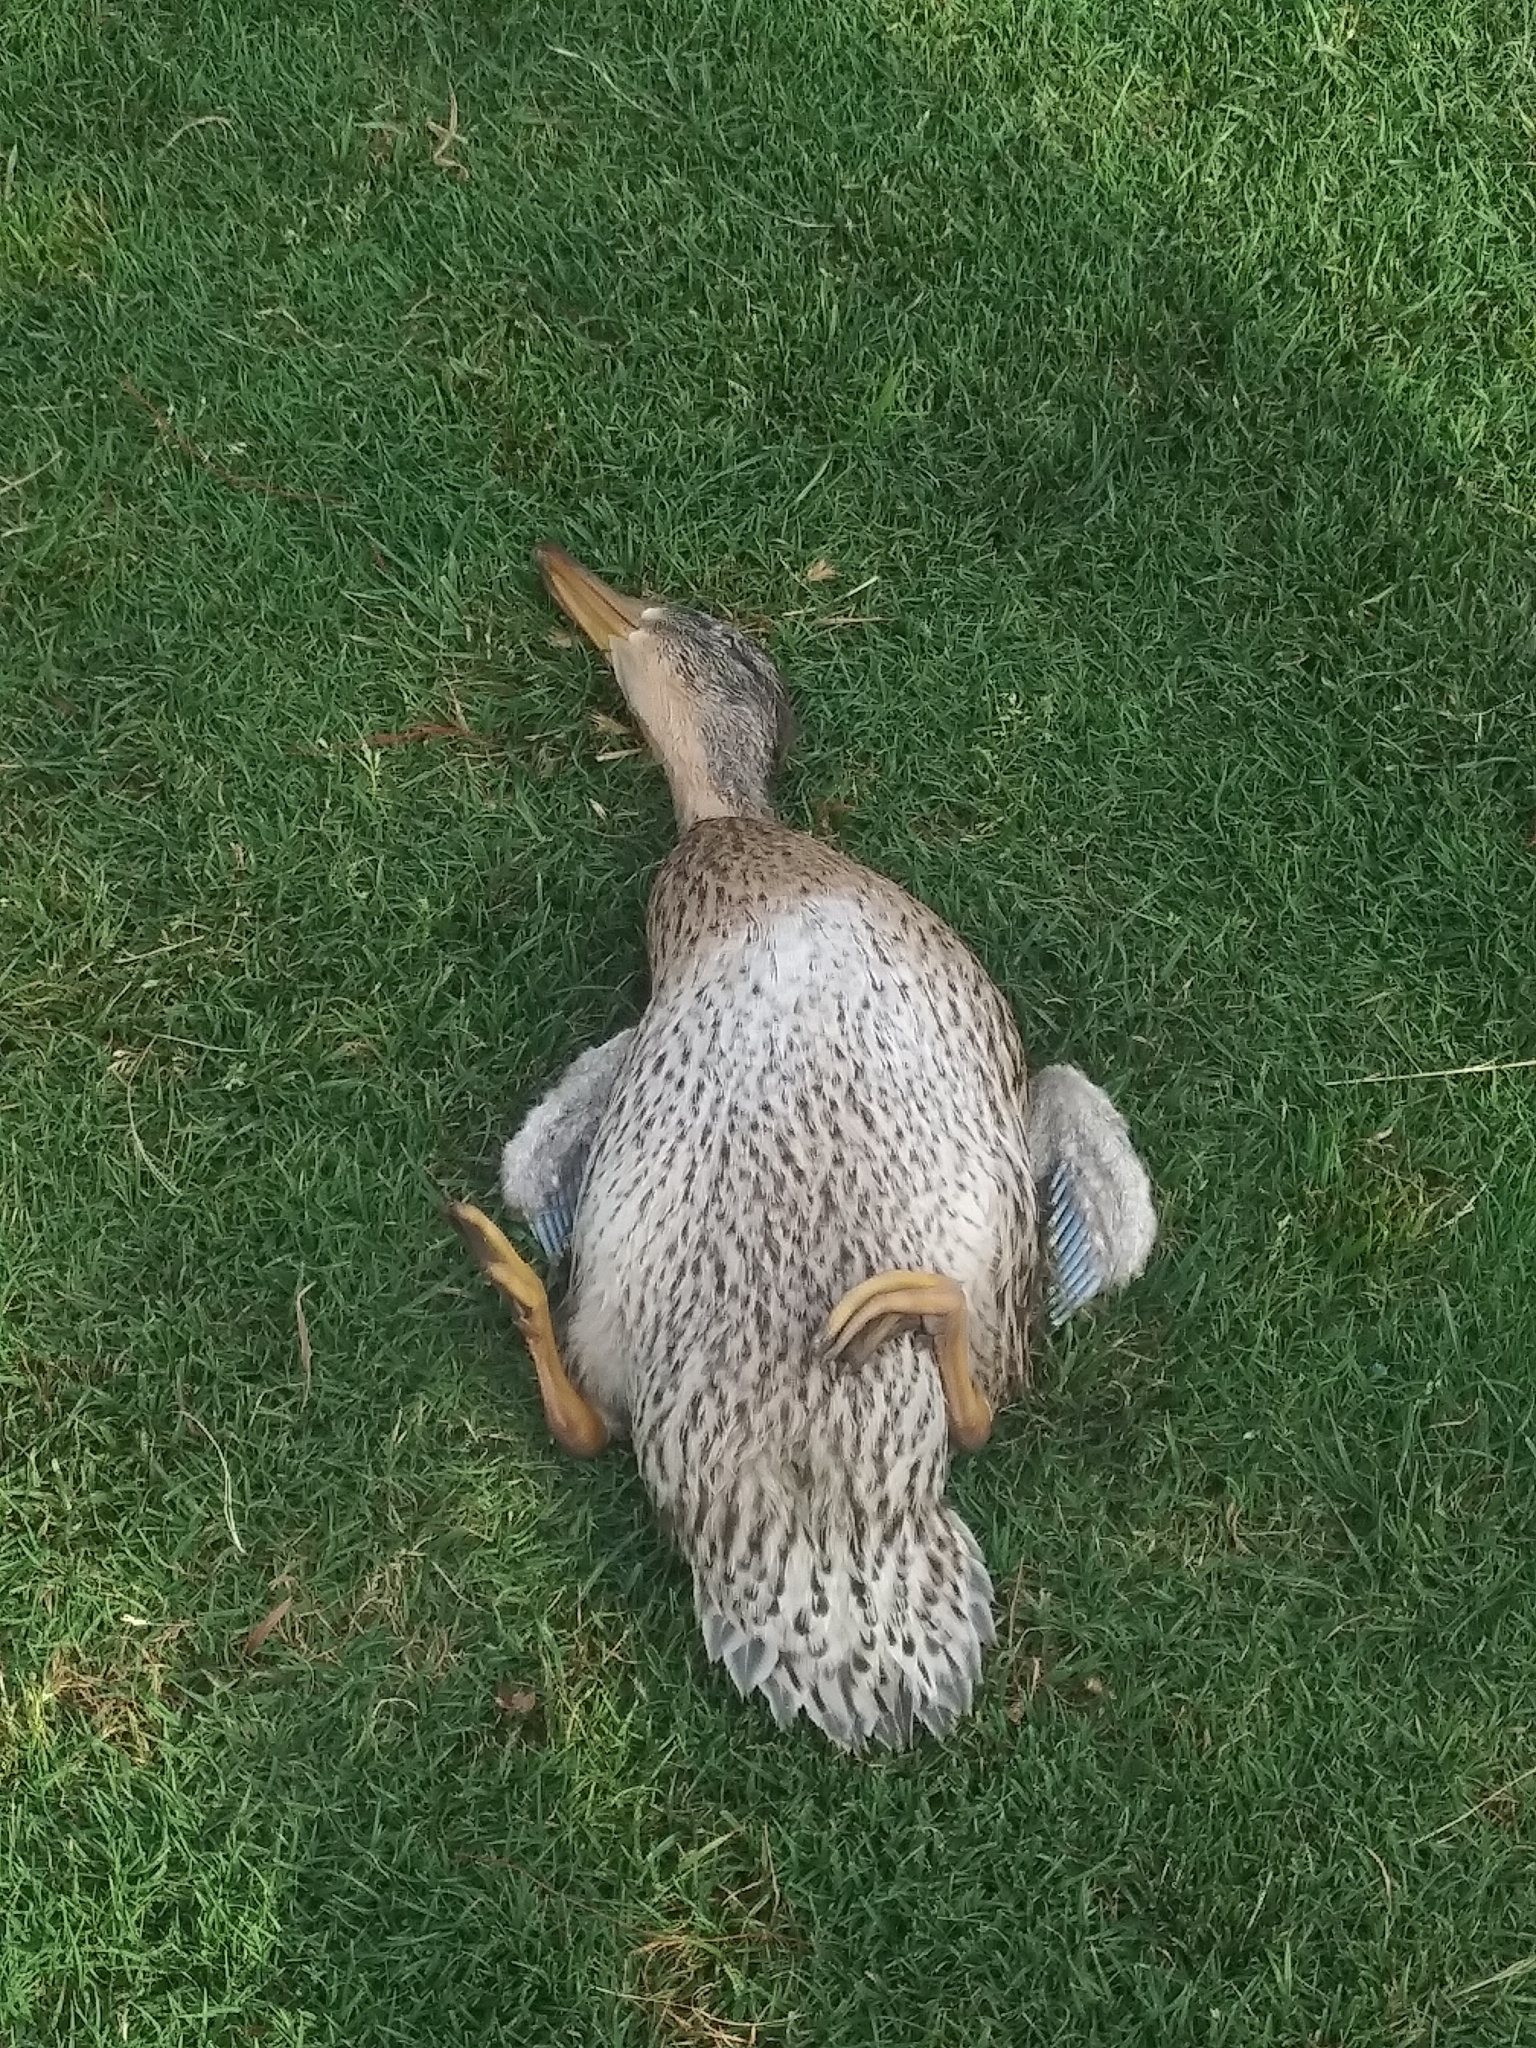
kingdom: Animalia
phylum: Chordata
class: Aves
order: Anseriformes
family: Anatidae
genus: Anas
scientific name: Anas platyrhynchos
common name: Mallard
